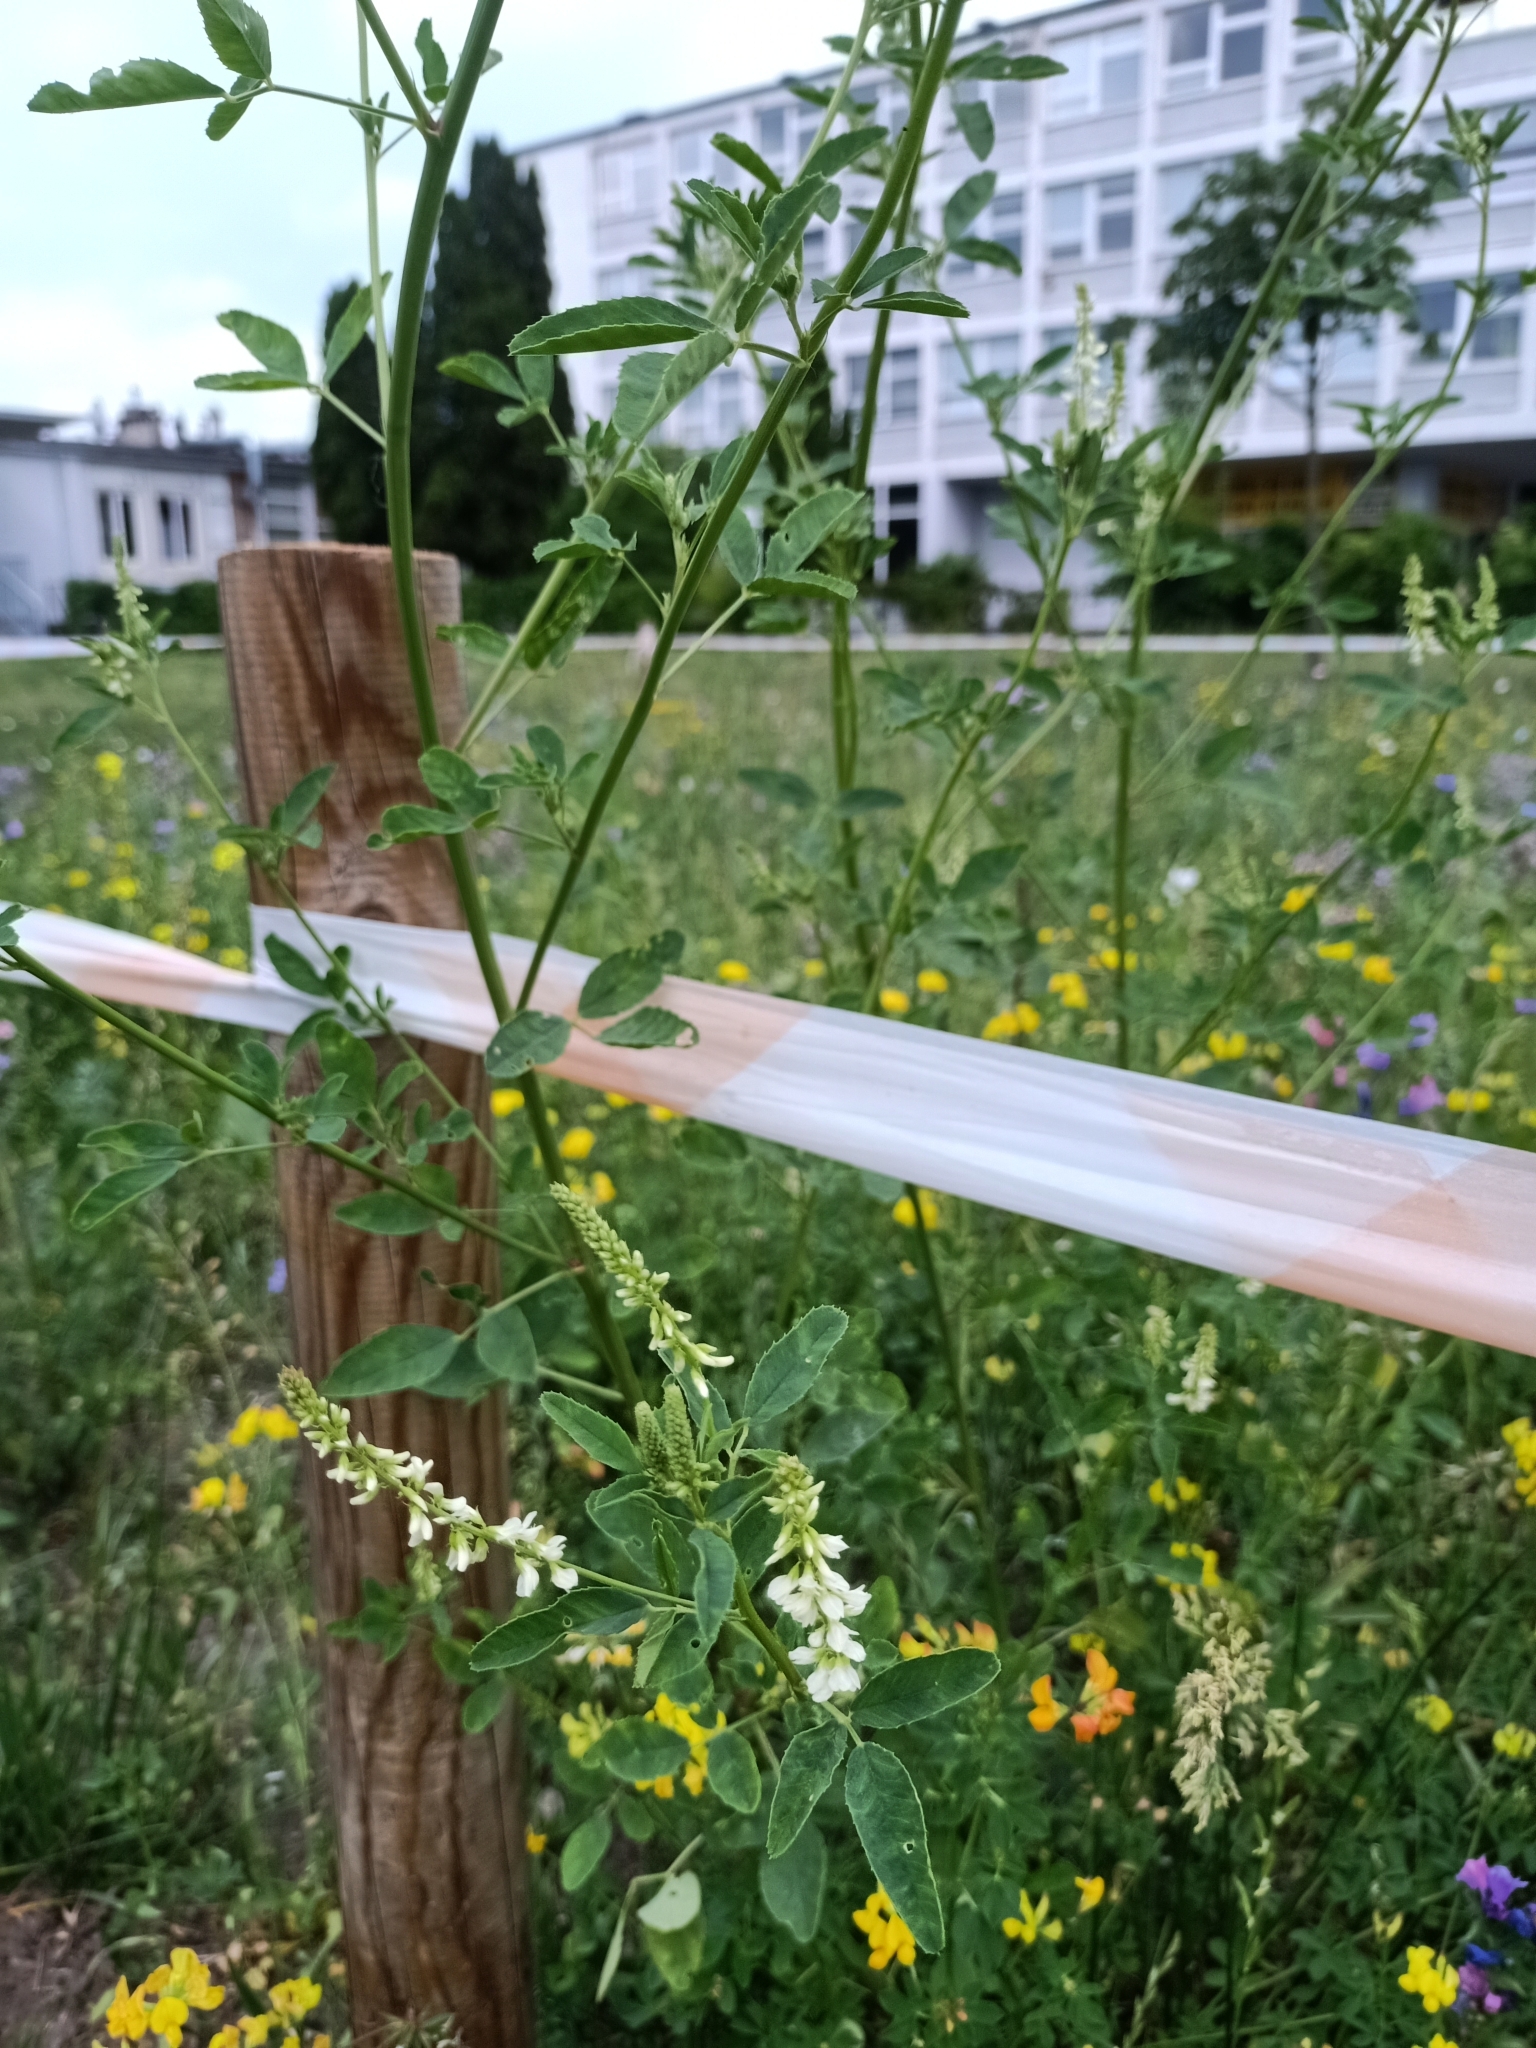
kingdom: Plantae
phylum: Tracheophyta
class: Magnoliopsida
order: Fabales
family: Fabaceae
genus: Melilotus
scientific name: Melilotus albus
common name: White melilot
